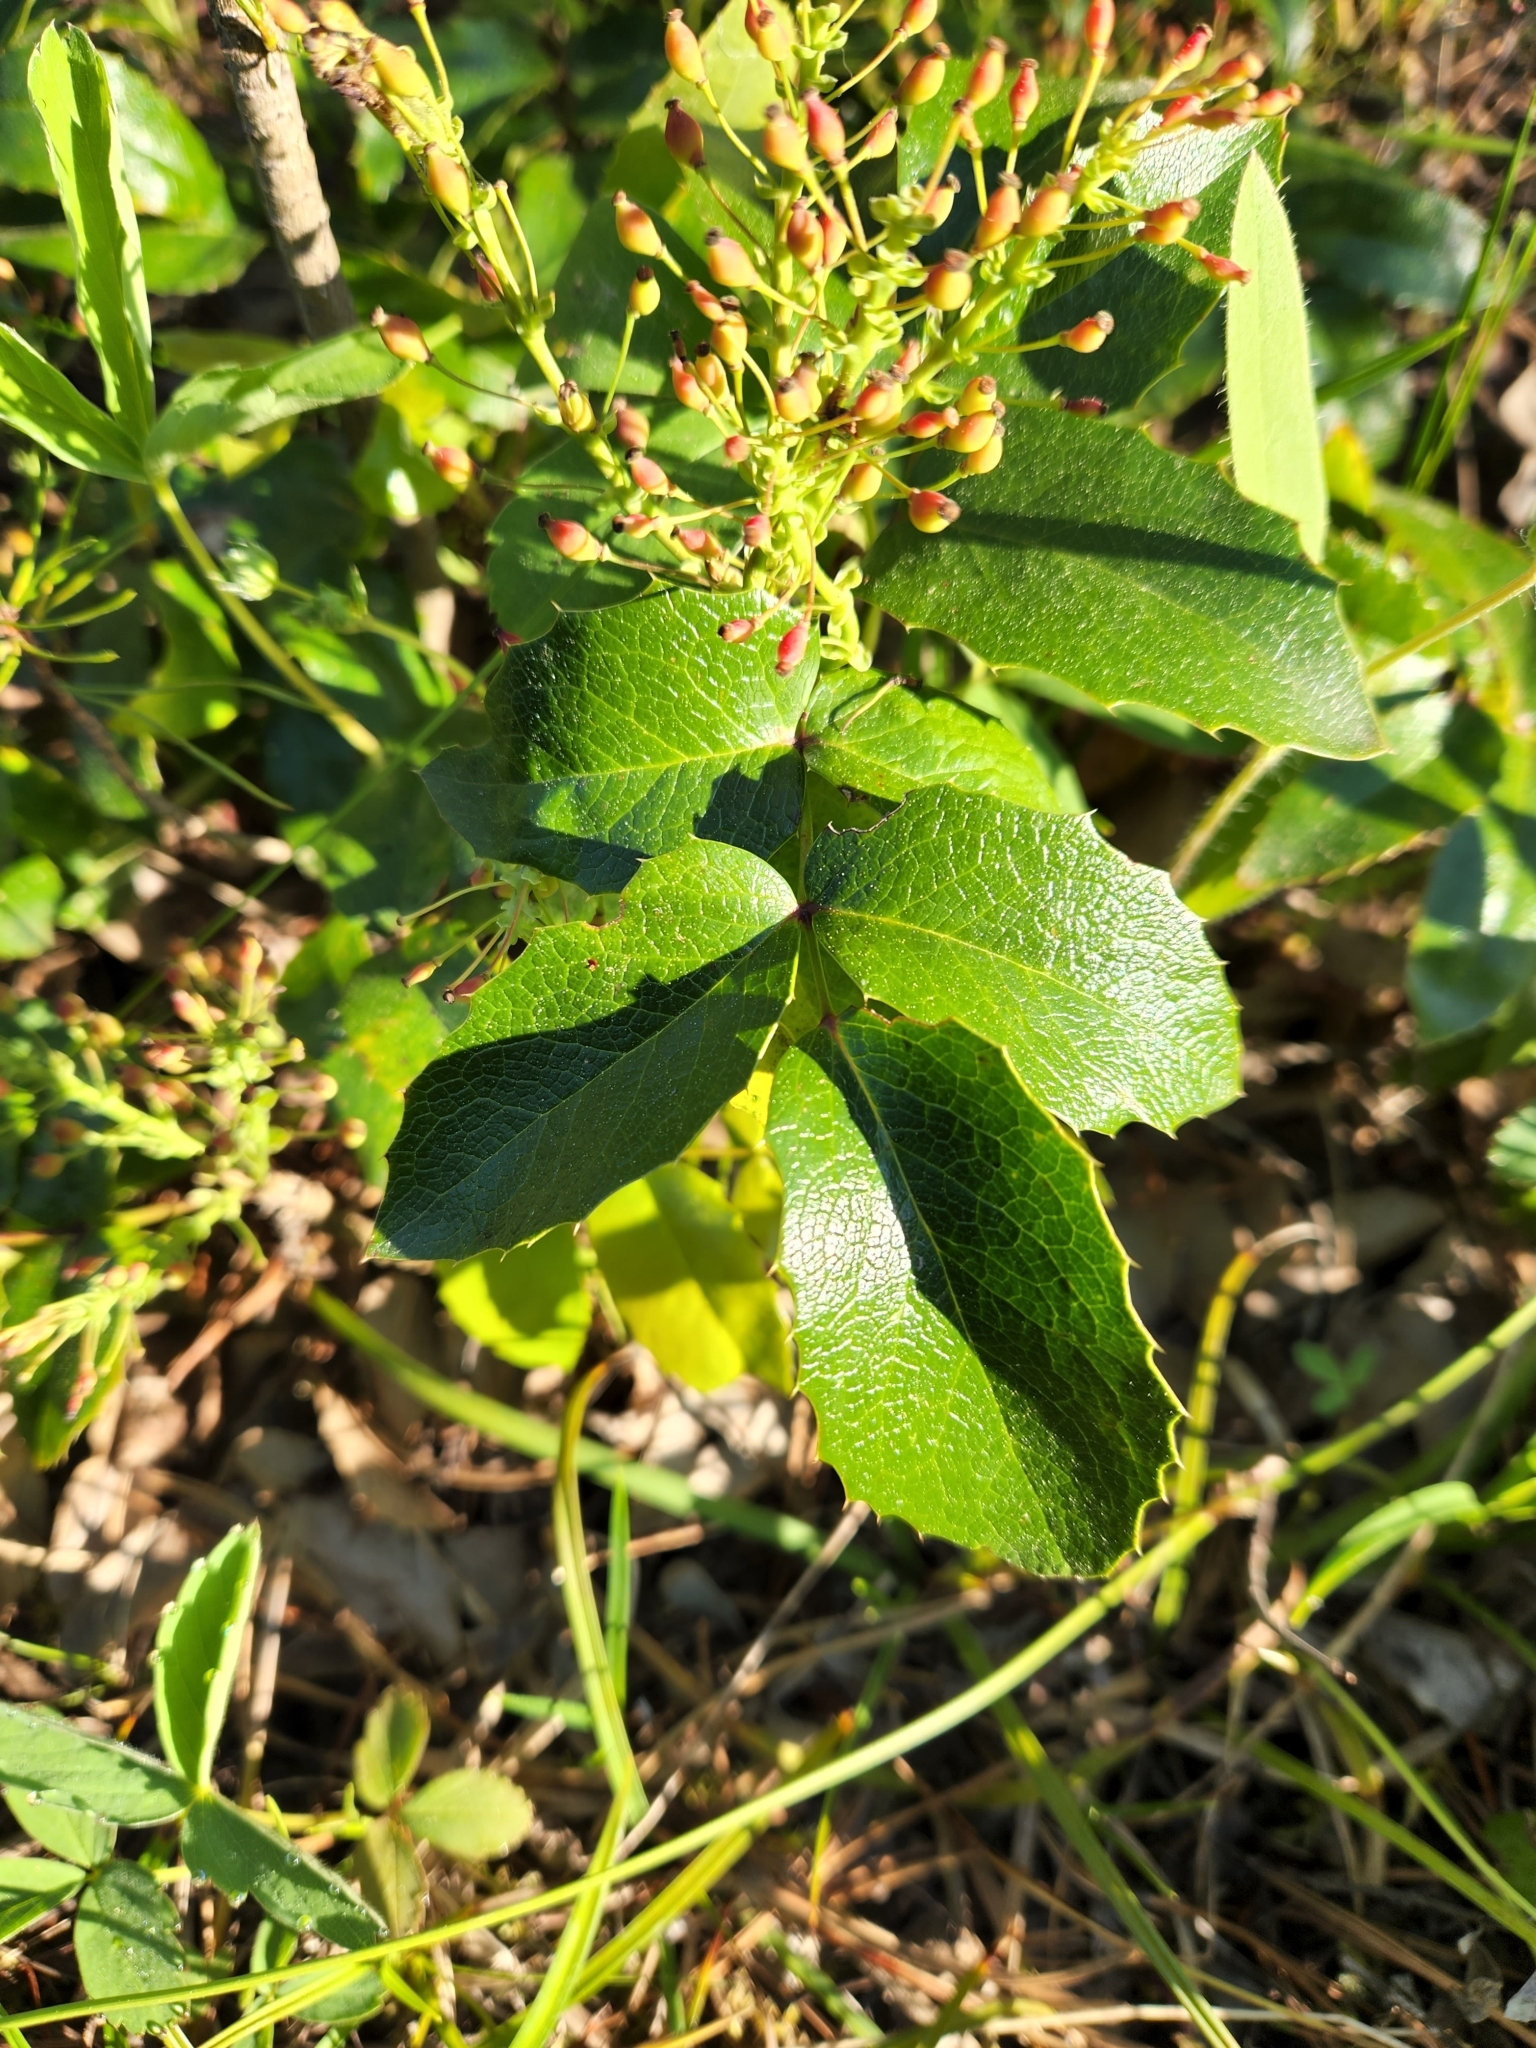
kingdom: Plantae
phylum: Tracheophyta
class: Magnoliopsida
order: Ranunculales
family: Berberidaceae
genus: Mahonia
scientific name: Mahonia aquifolium
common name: Oregon-grape
